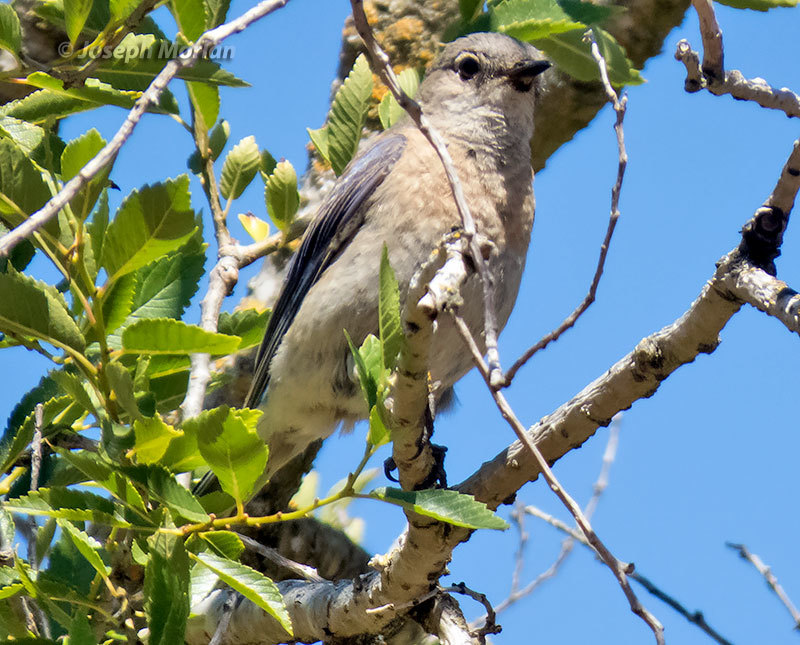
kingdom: Animalia
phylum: Chordata
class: Aves
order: Passeriformes
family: Turdidae
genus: Sialia
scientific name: Sialia mexicana
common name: Western bluebird
